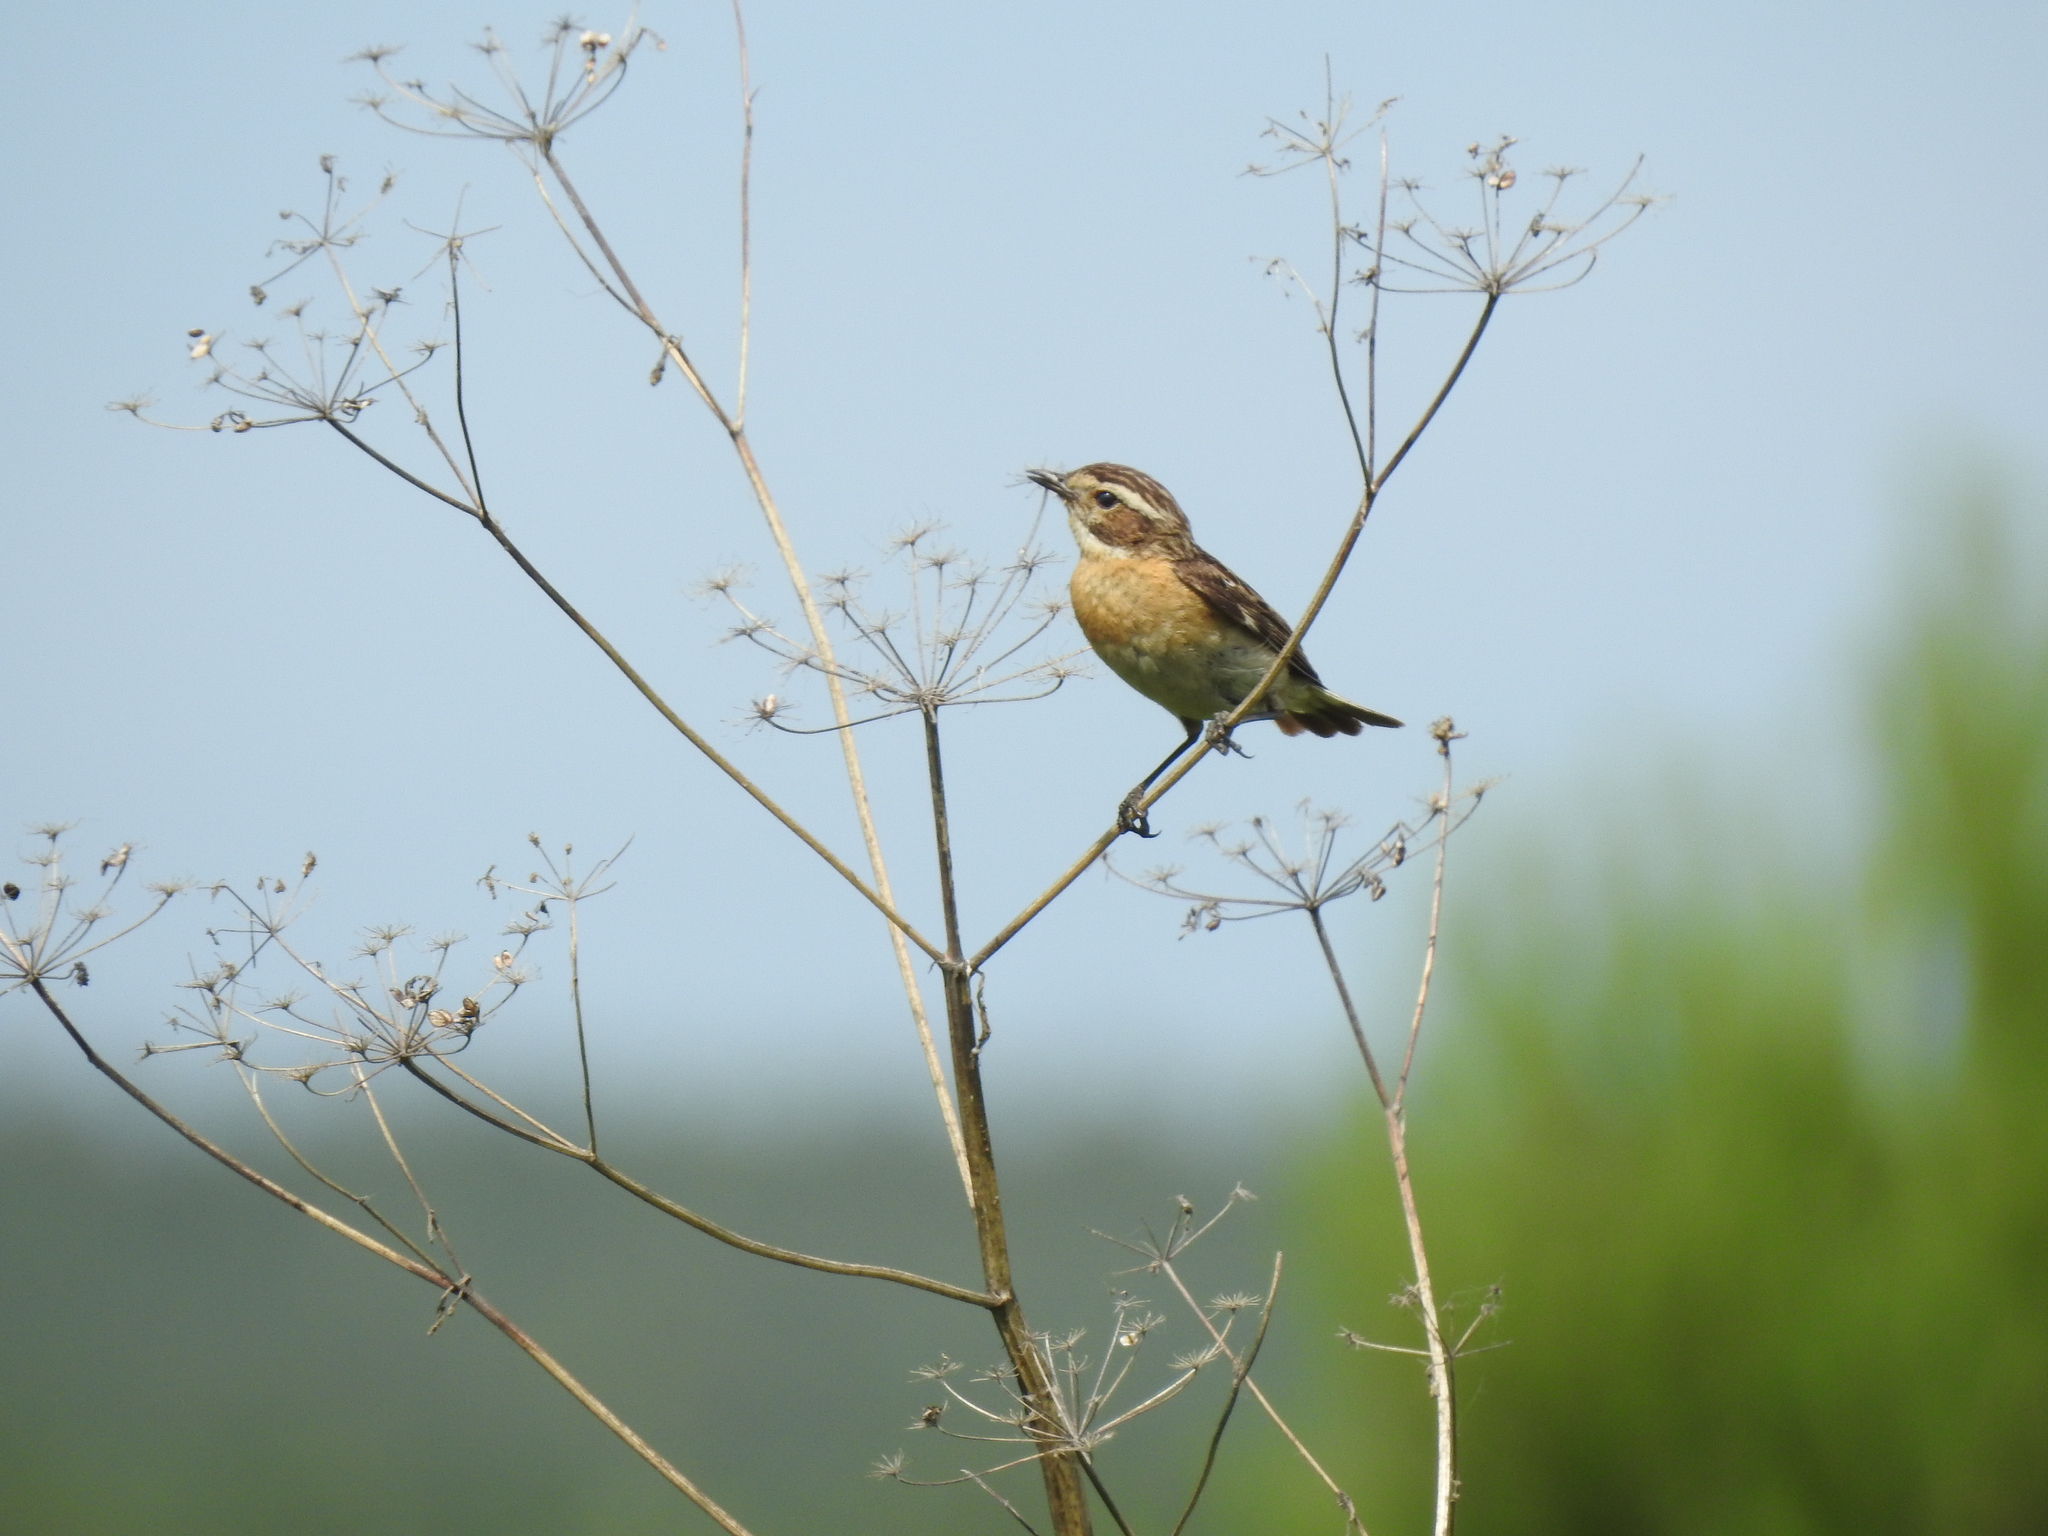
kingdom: Animalia
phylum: Chordata
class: Aves
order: Passeriformes
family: Muscicapidae
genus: Saxicola
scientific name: Saxicola rubetra
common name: Whinchat
